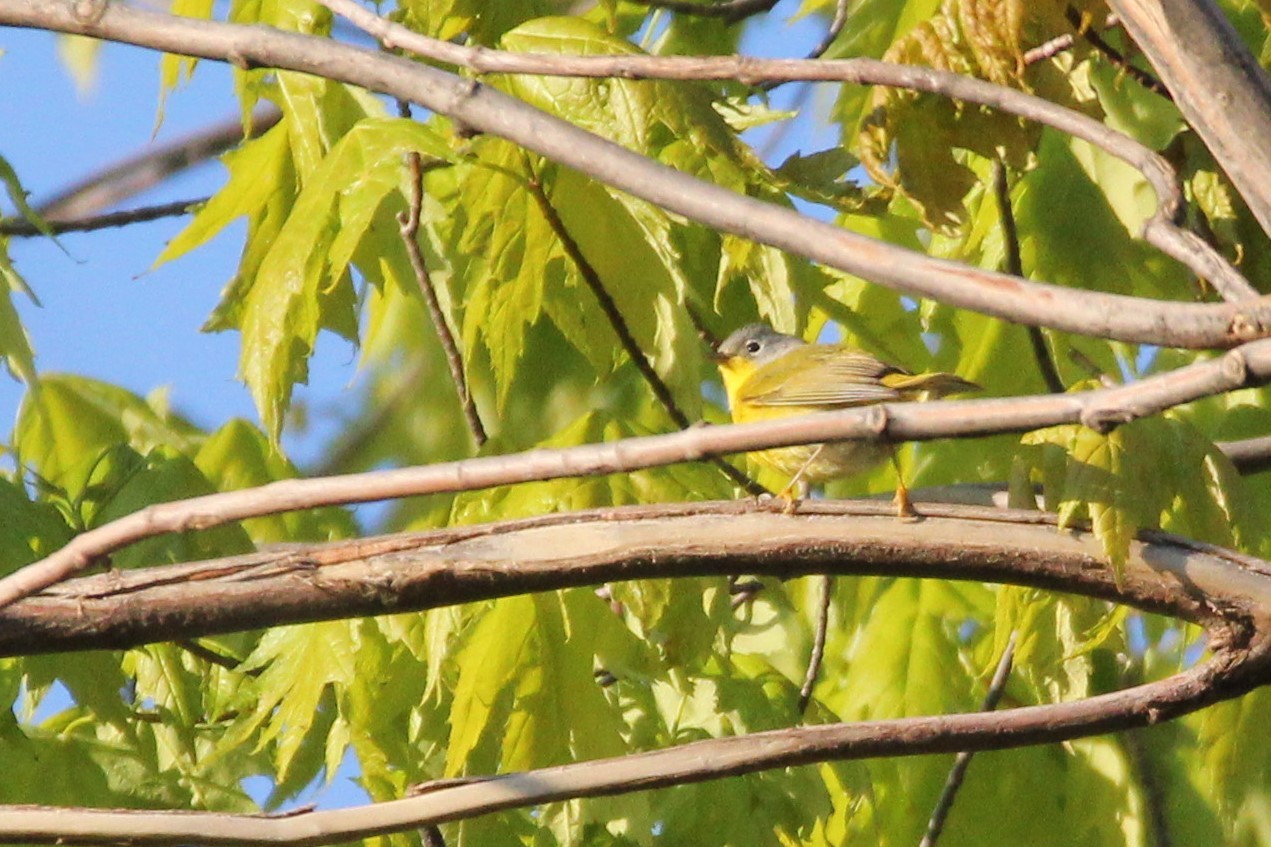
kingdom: Animalia
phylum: Chordata
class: Aves
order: Passeriformes
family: Parulidae
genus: Leiothlypis
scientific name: Leiothlypis ruficapilla
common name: Nashville warbler
